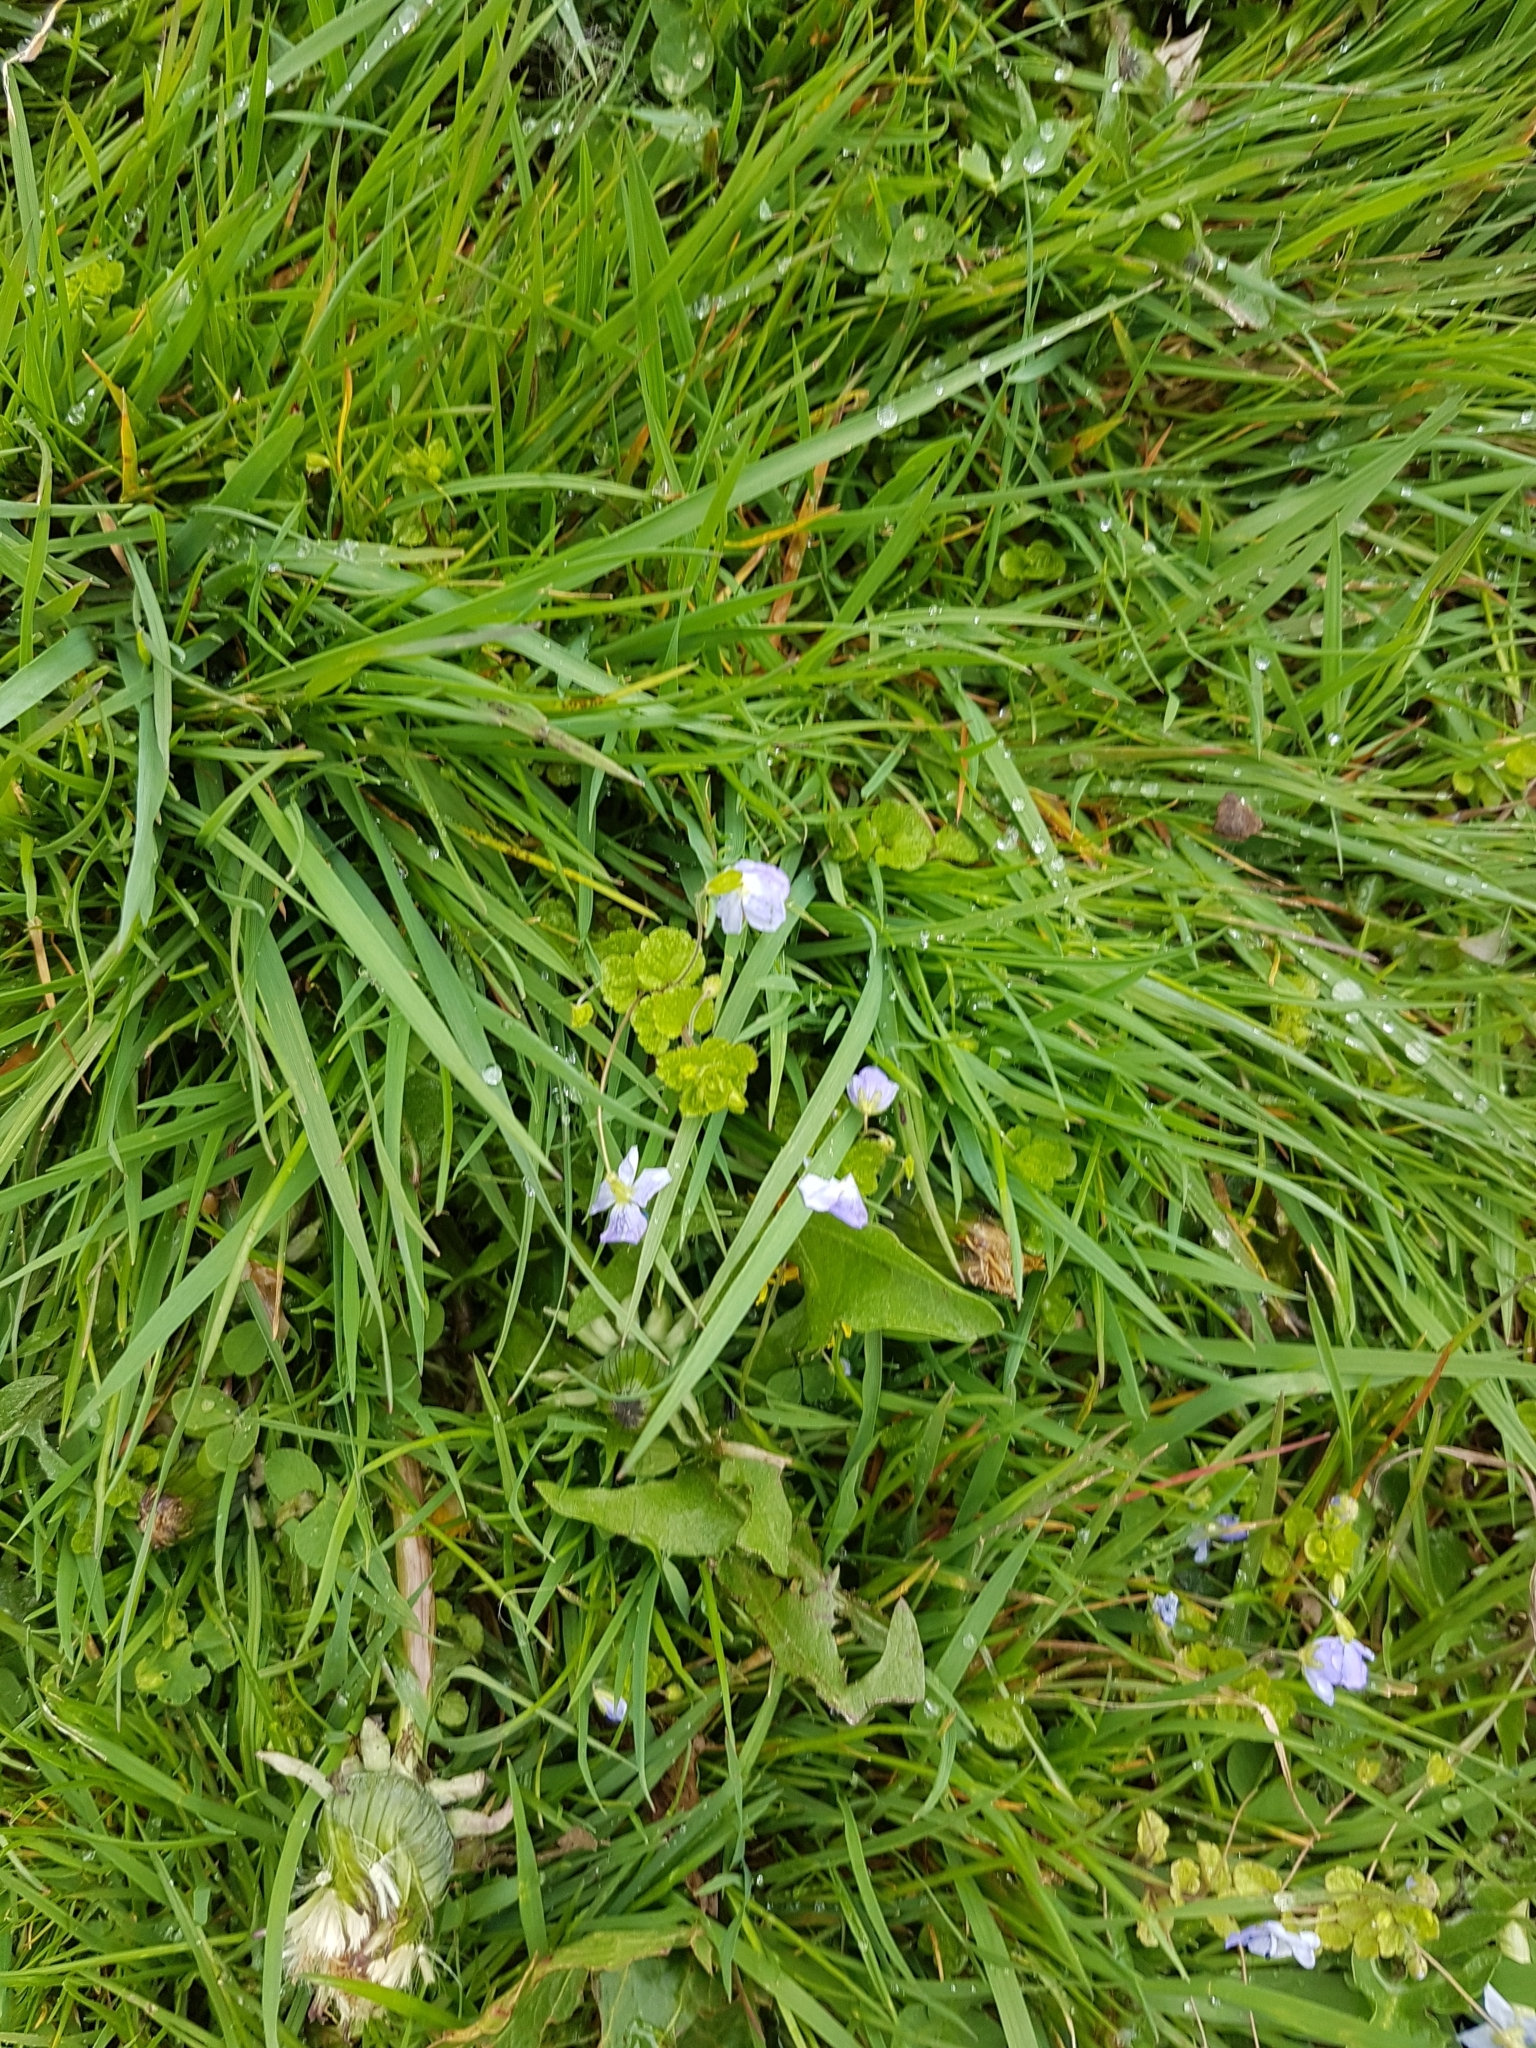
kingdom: Plantae
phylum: Tracheophyta
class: Magnoliopsida
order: Lamiales
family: Plantaginaceae
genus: Veronica
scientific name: Veronica filiformis
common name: Slender speedwell
